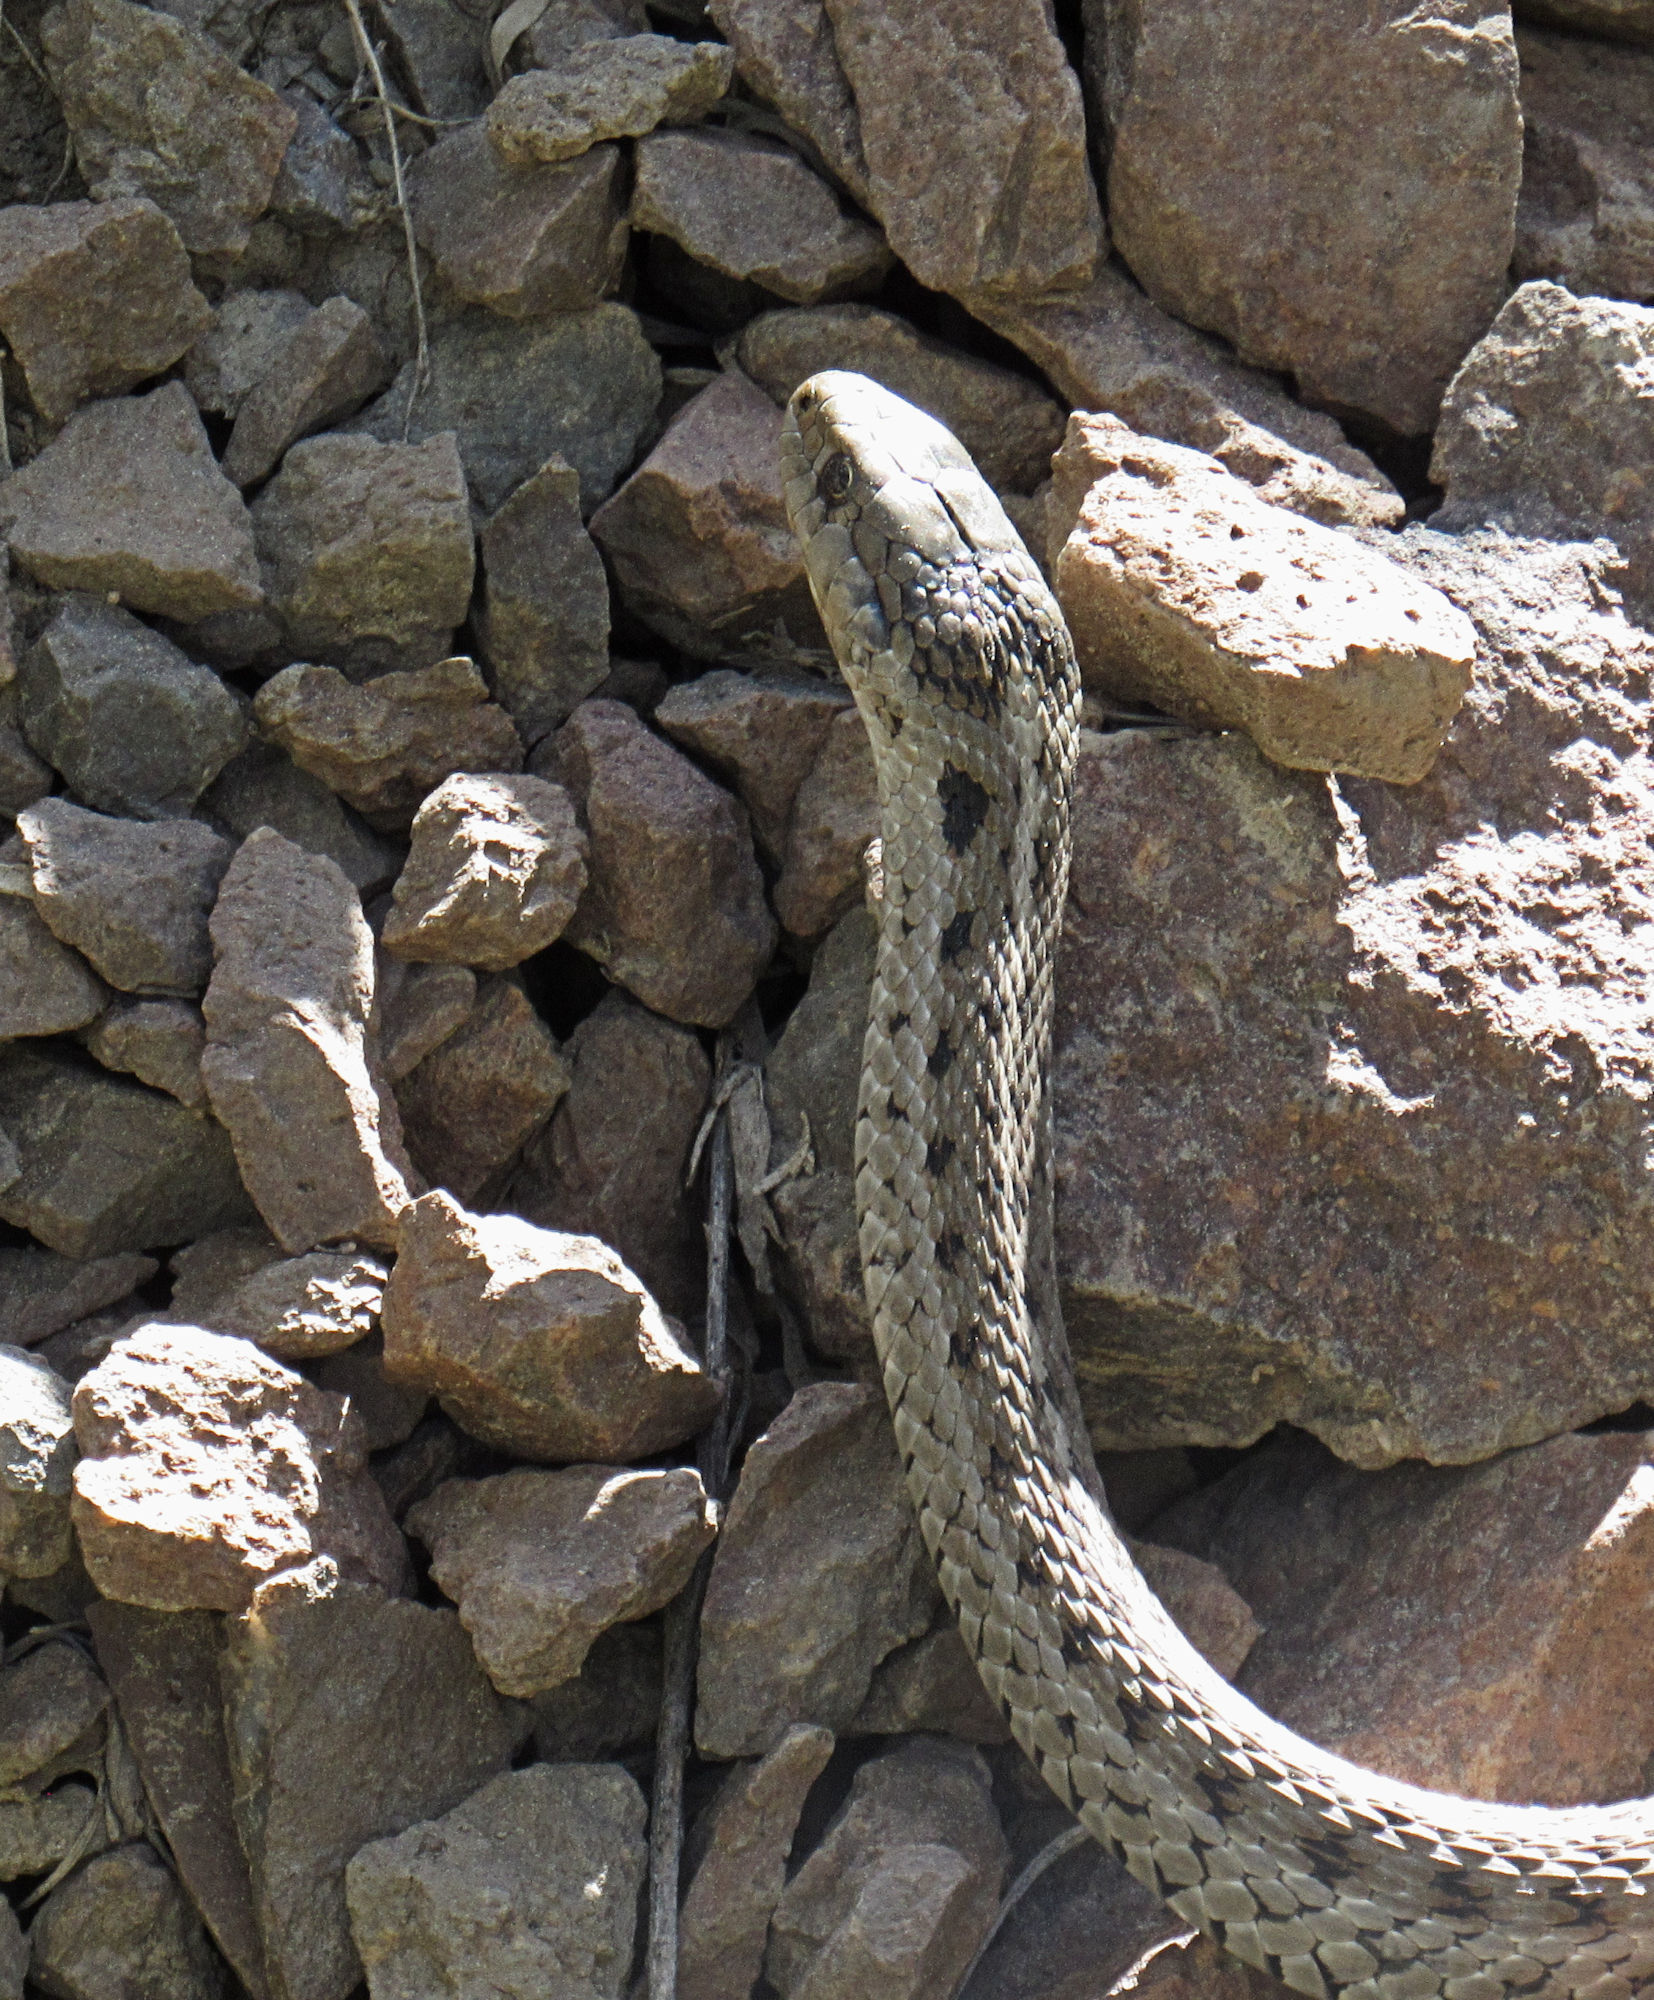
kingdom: Animalia
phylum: Chordata
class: Squamata
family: Colubridae
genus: Thamnophis
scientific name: Thamnophis elegans
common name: Western terrestrial garter snake
